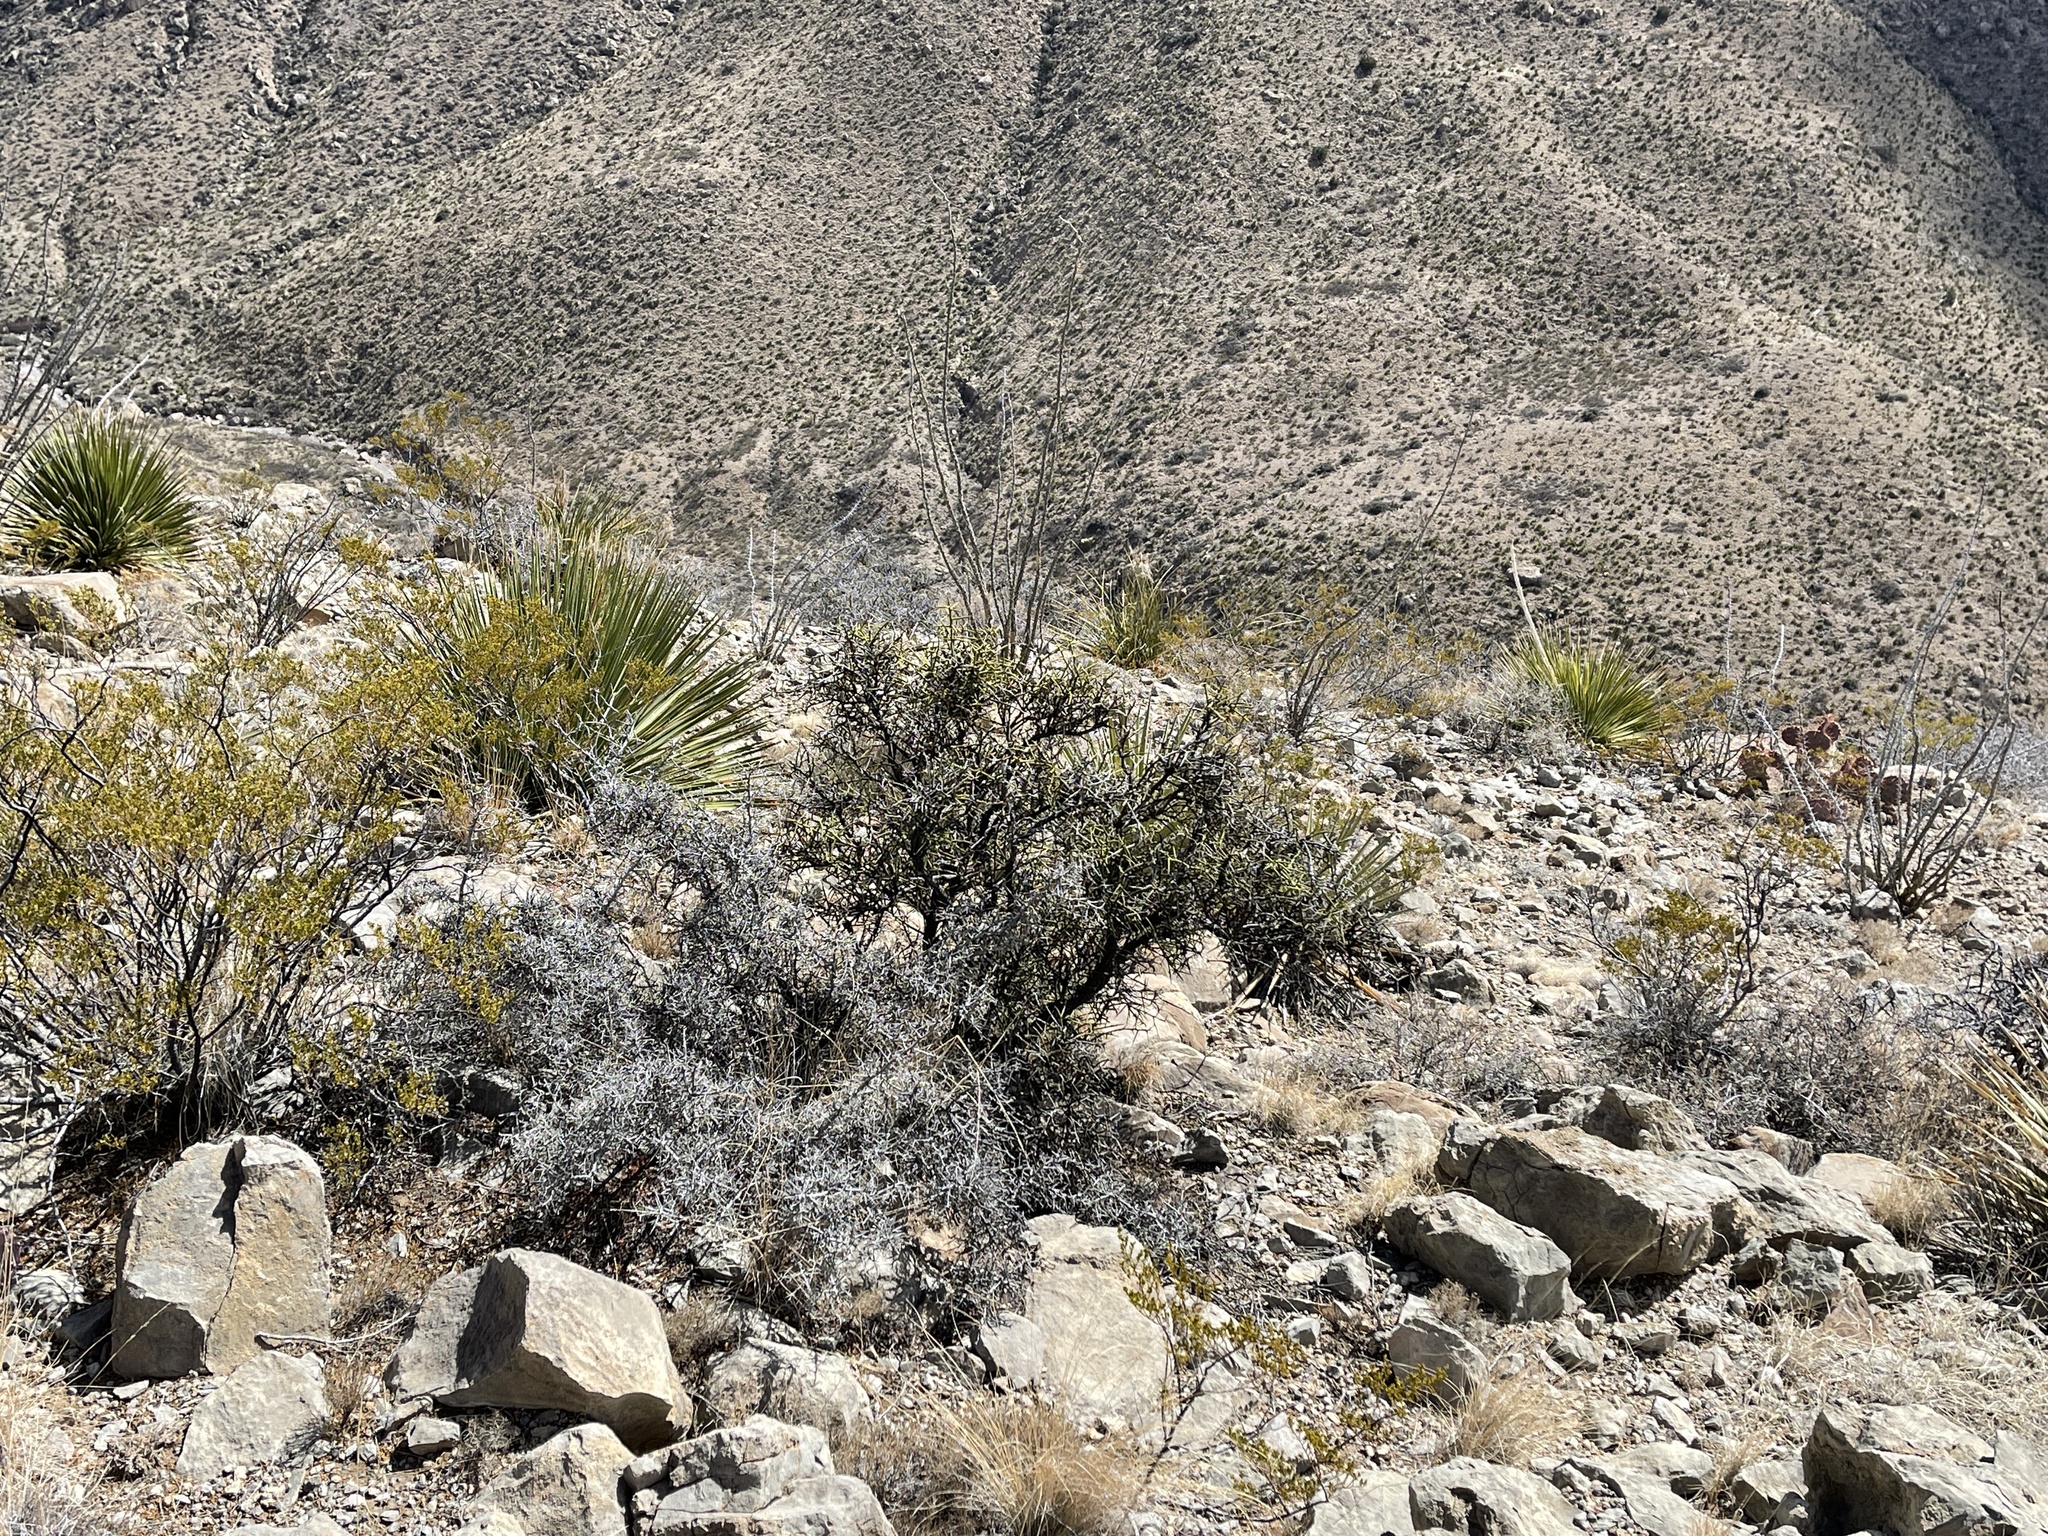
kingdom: Plantae
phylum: Tracheophyta
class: Magnoliopsida
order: Brassicales
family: Koeberliniaceae
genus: Koeberlinia
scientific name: Koeberlinia spinosa
